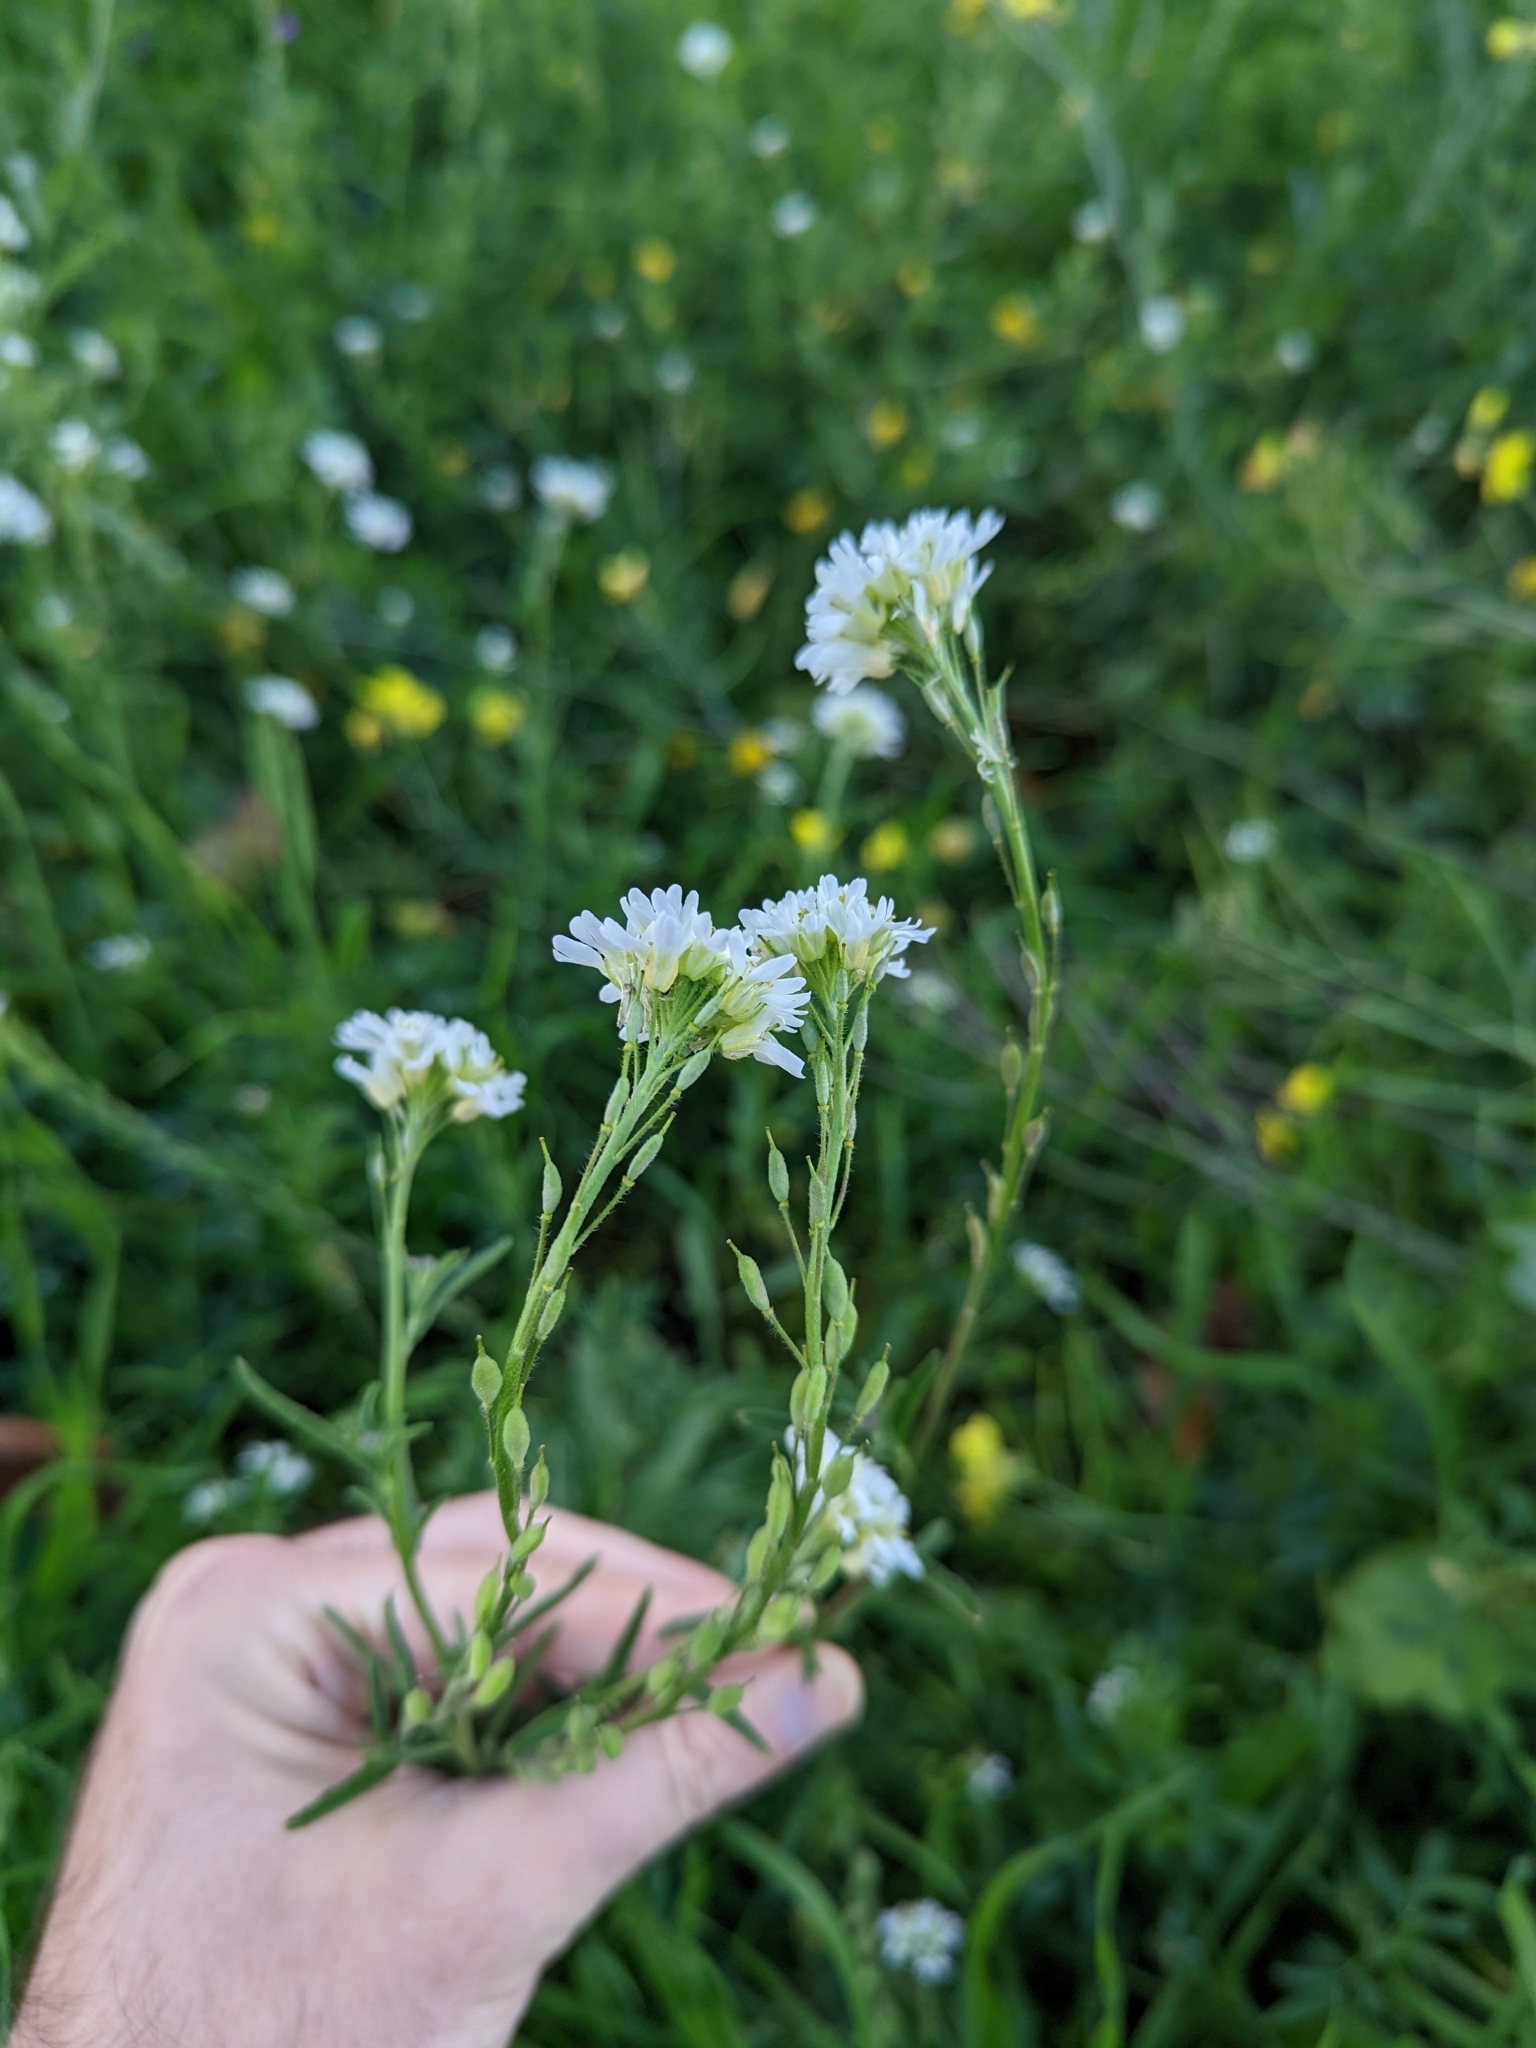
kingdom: Plantae
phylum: Tracheophyta
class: Magnoliopsida
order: Brassicales
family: Brassicaceae
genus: Berteroa
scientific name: Berteroa incana
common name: Hoary alison
